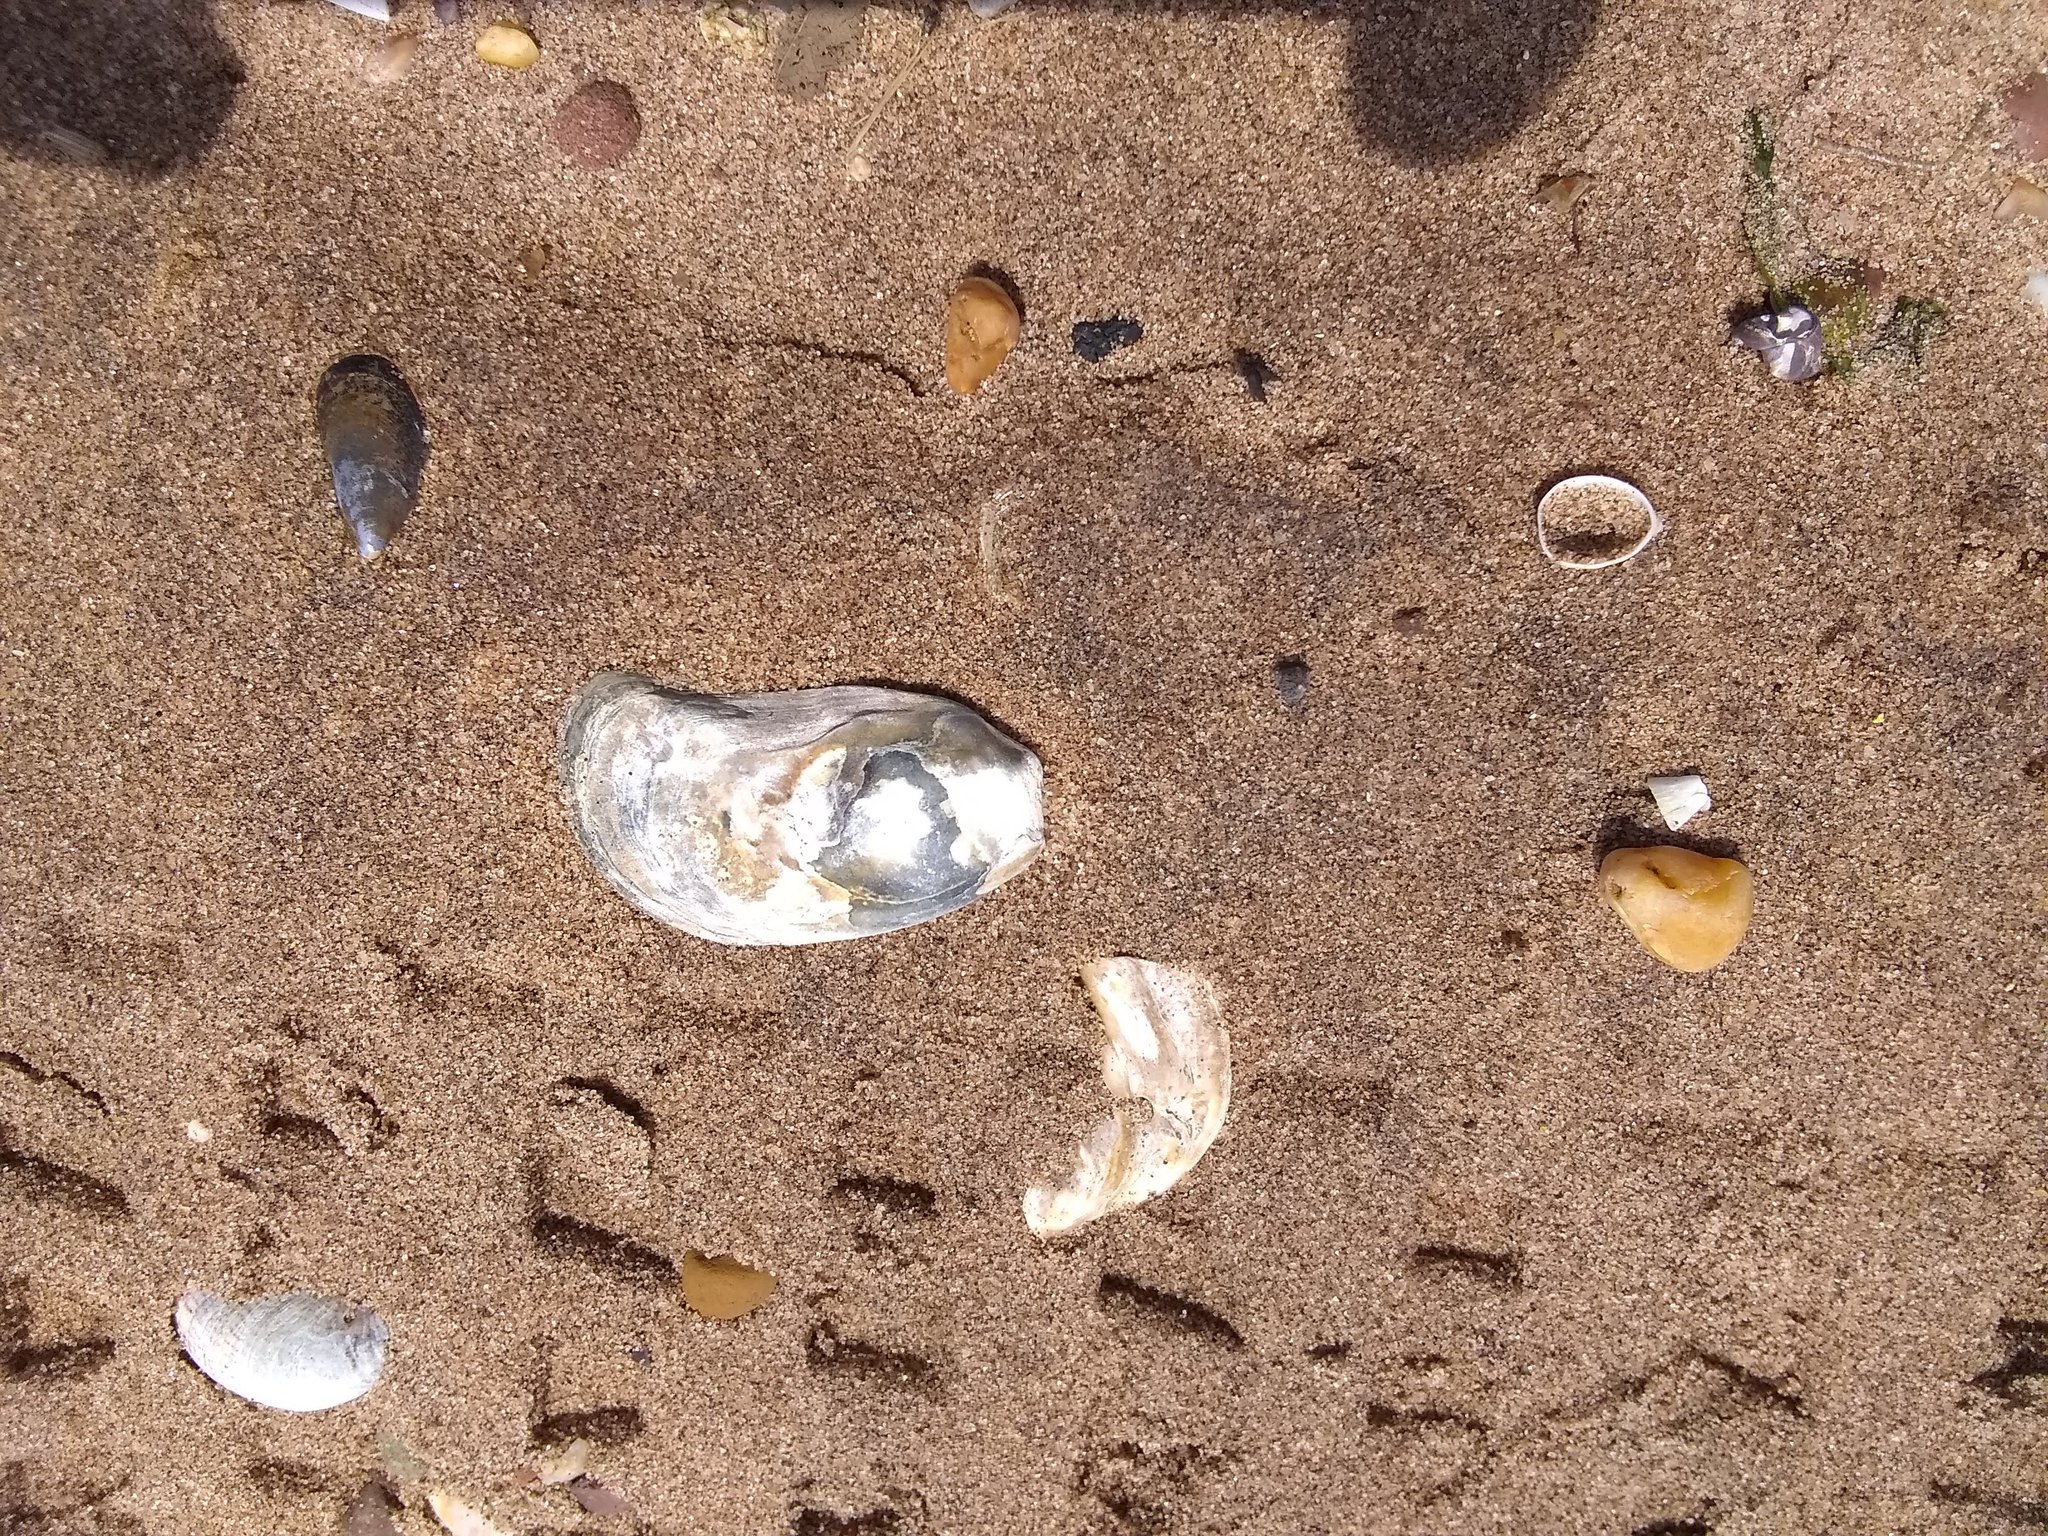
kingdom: Animalia
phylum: Mollusca
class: Bivalvia
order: Ostreida
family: Ostreidae
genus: Crassostrea
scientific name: Crassostrea virginica
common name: American oyster
